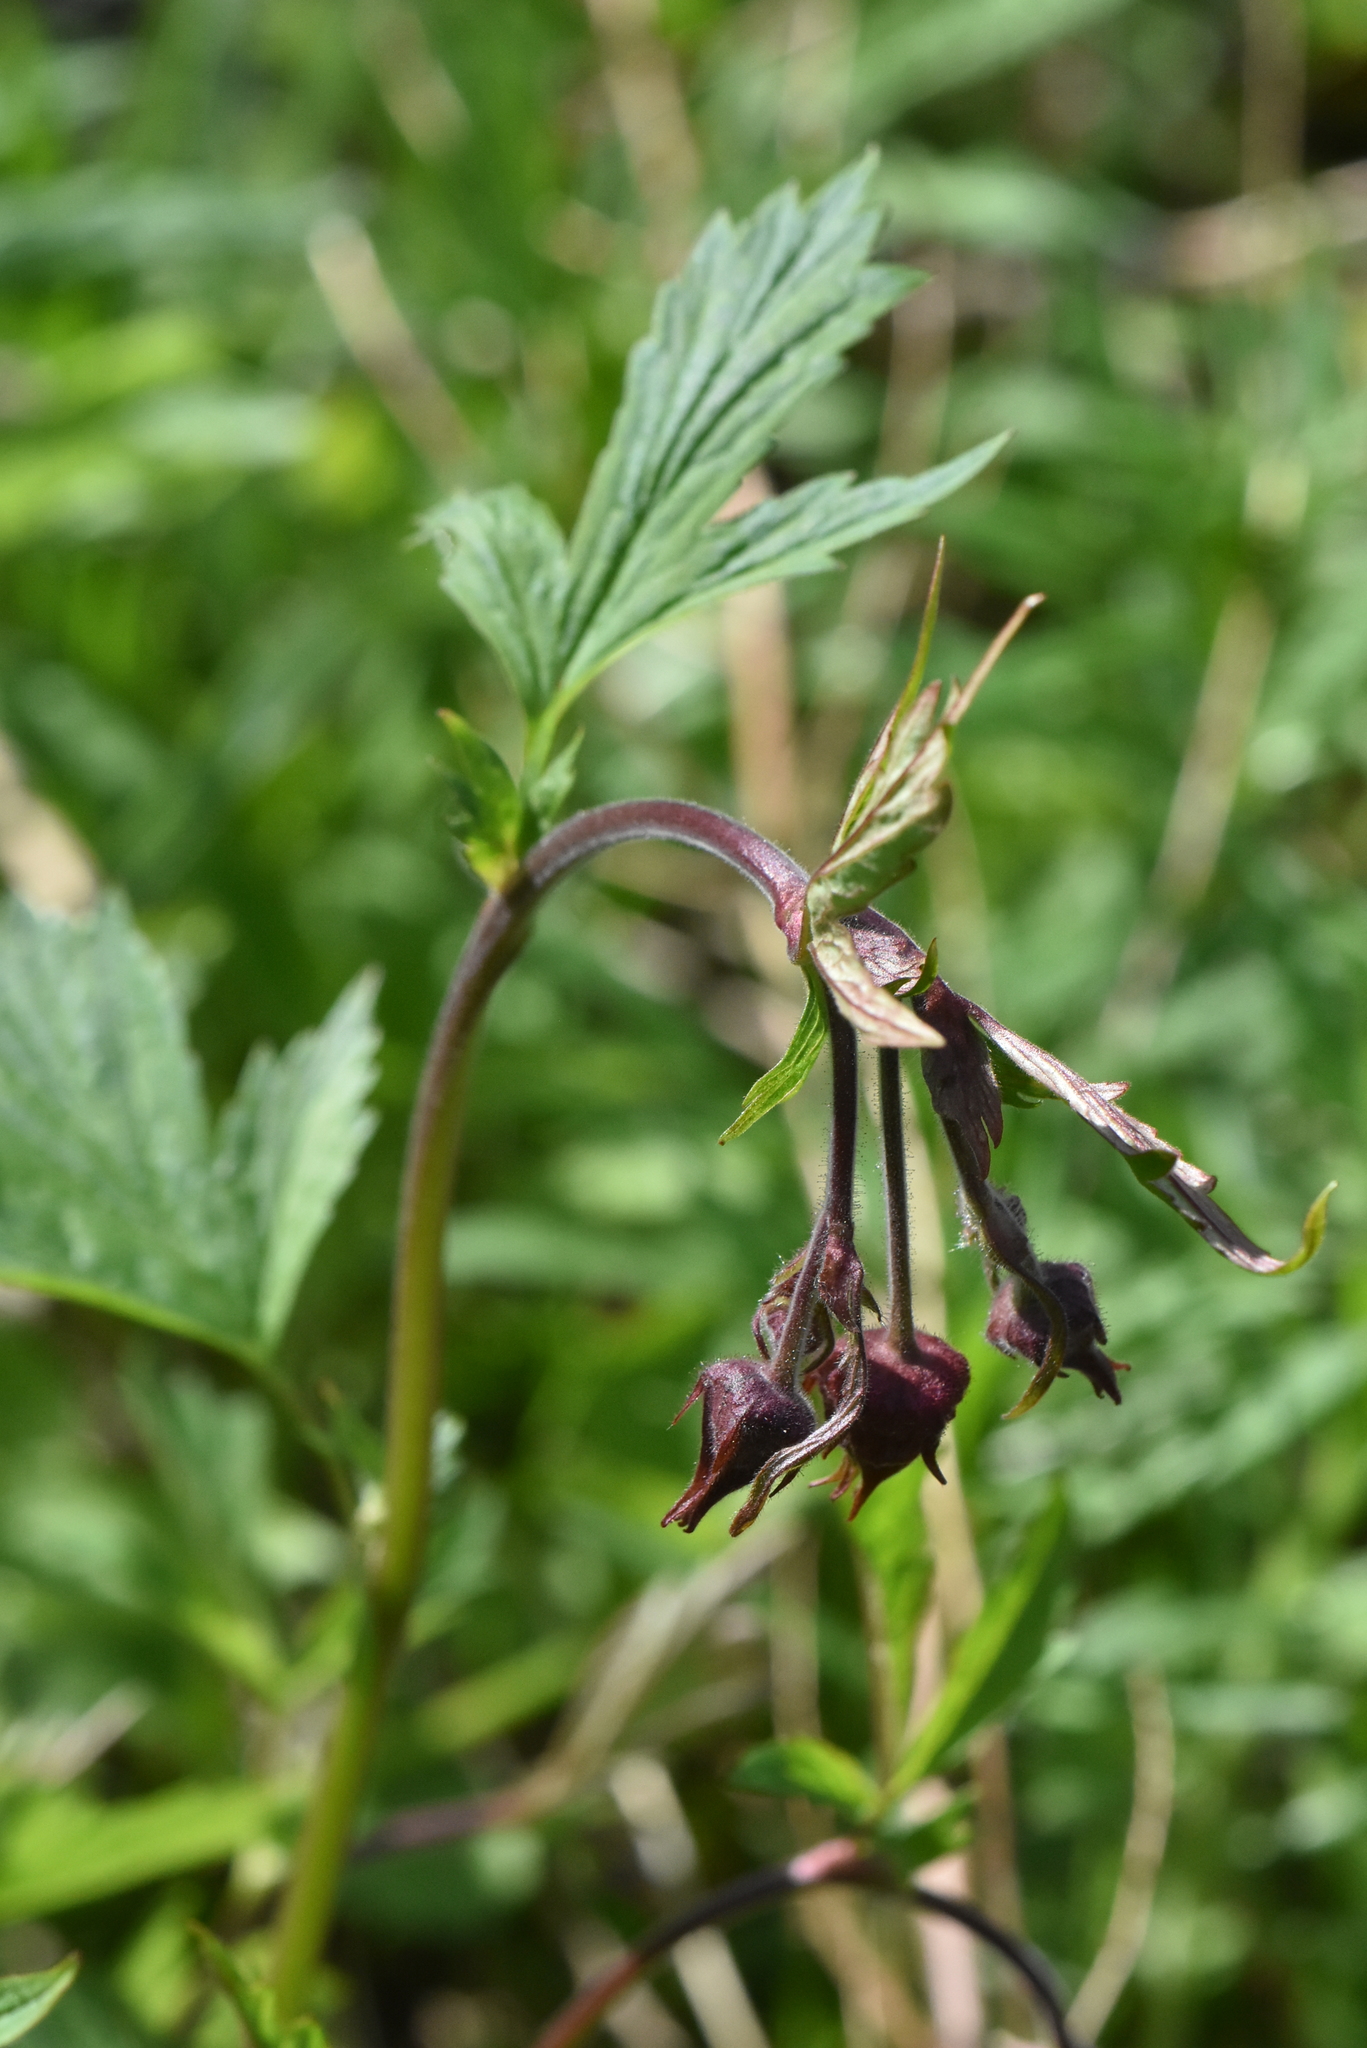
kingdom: Plantae
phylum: Tracheophyta
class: Magnoliopsida
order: Rosales
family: Rosaceae
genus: Geum
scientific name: Geum rivale
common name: Water avens
